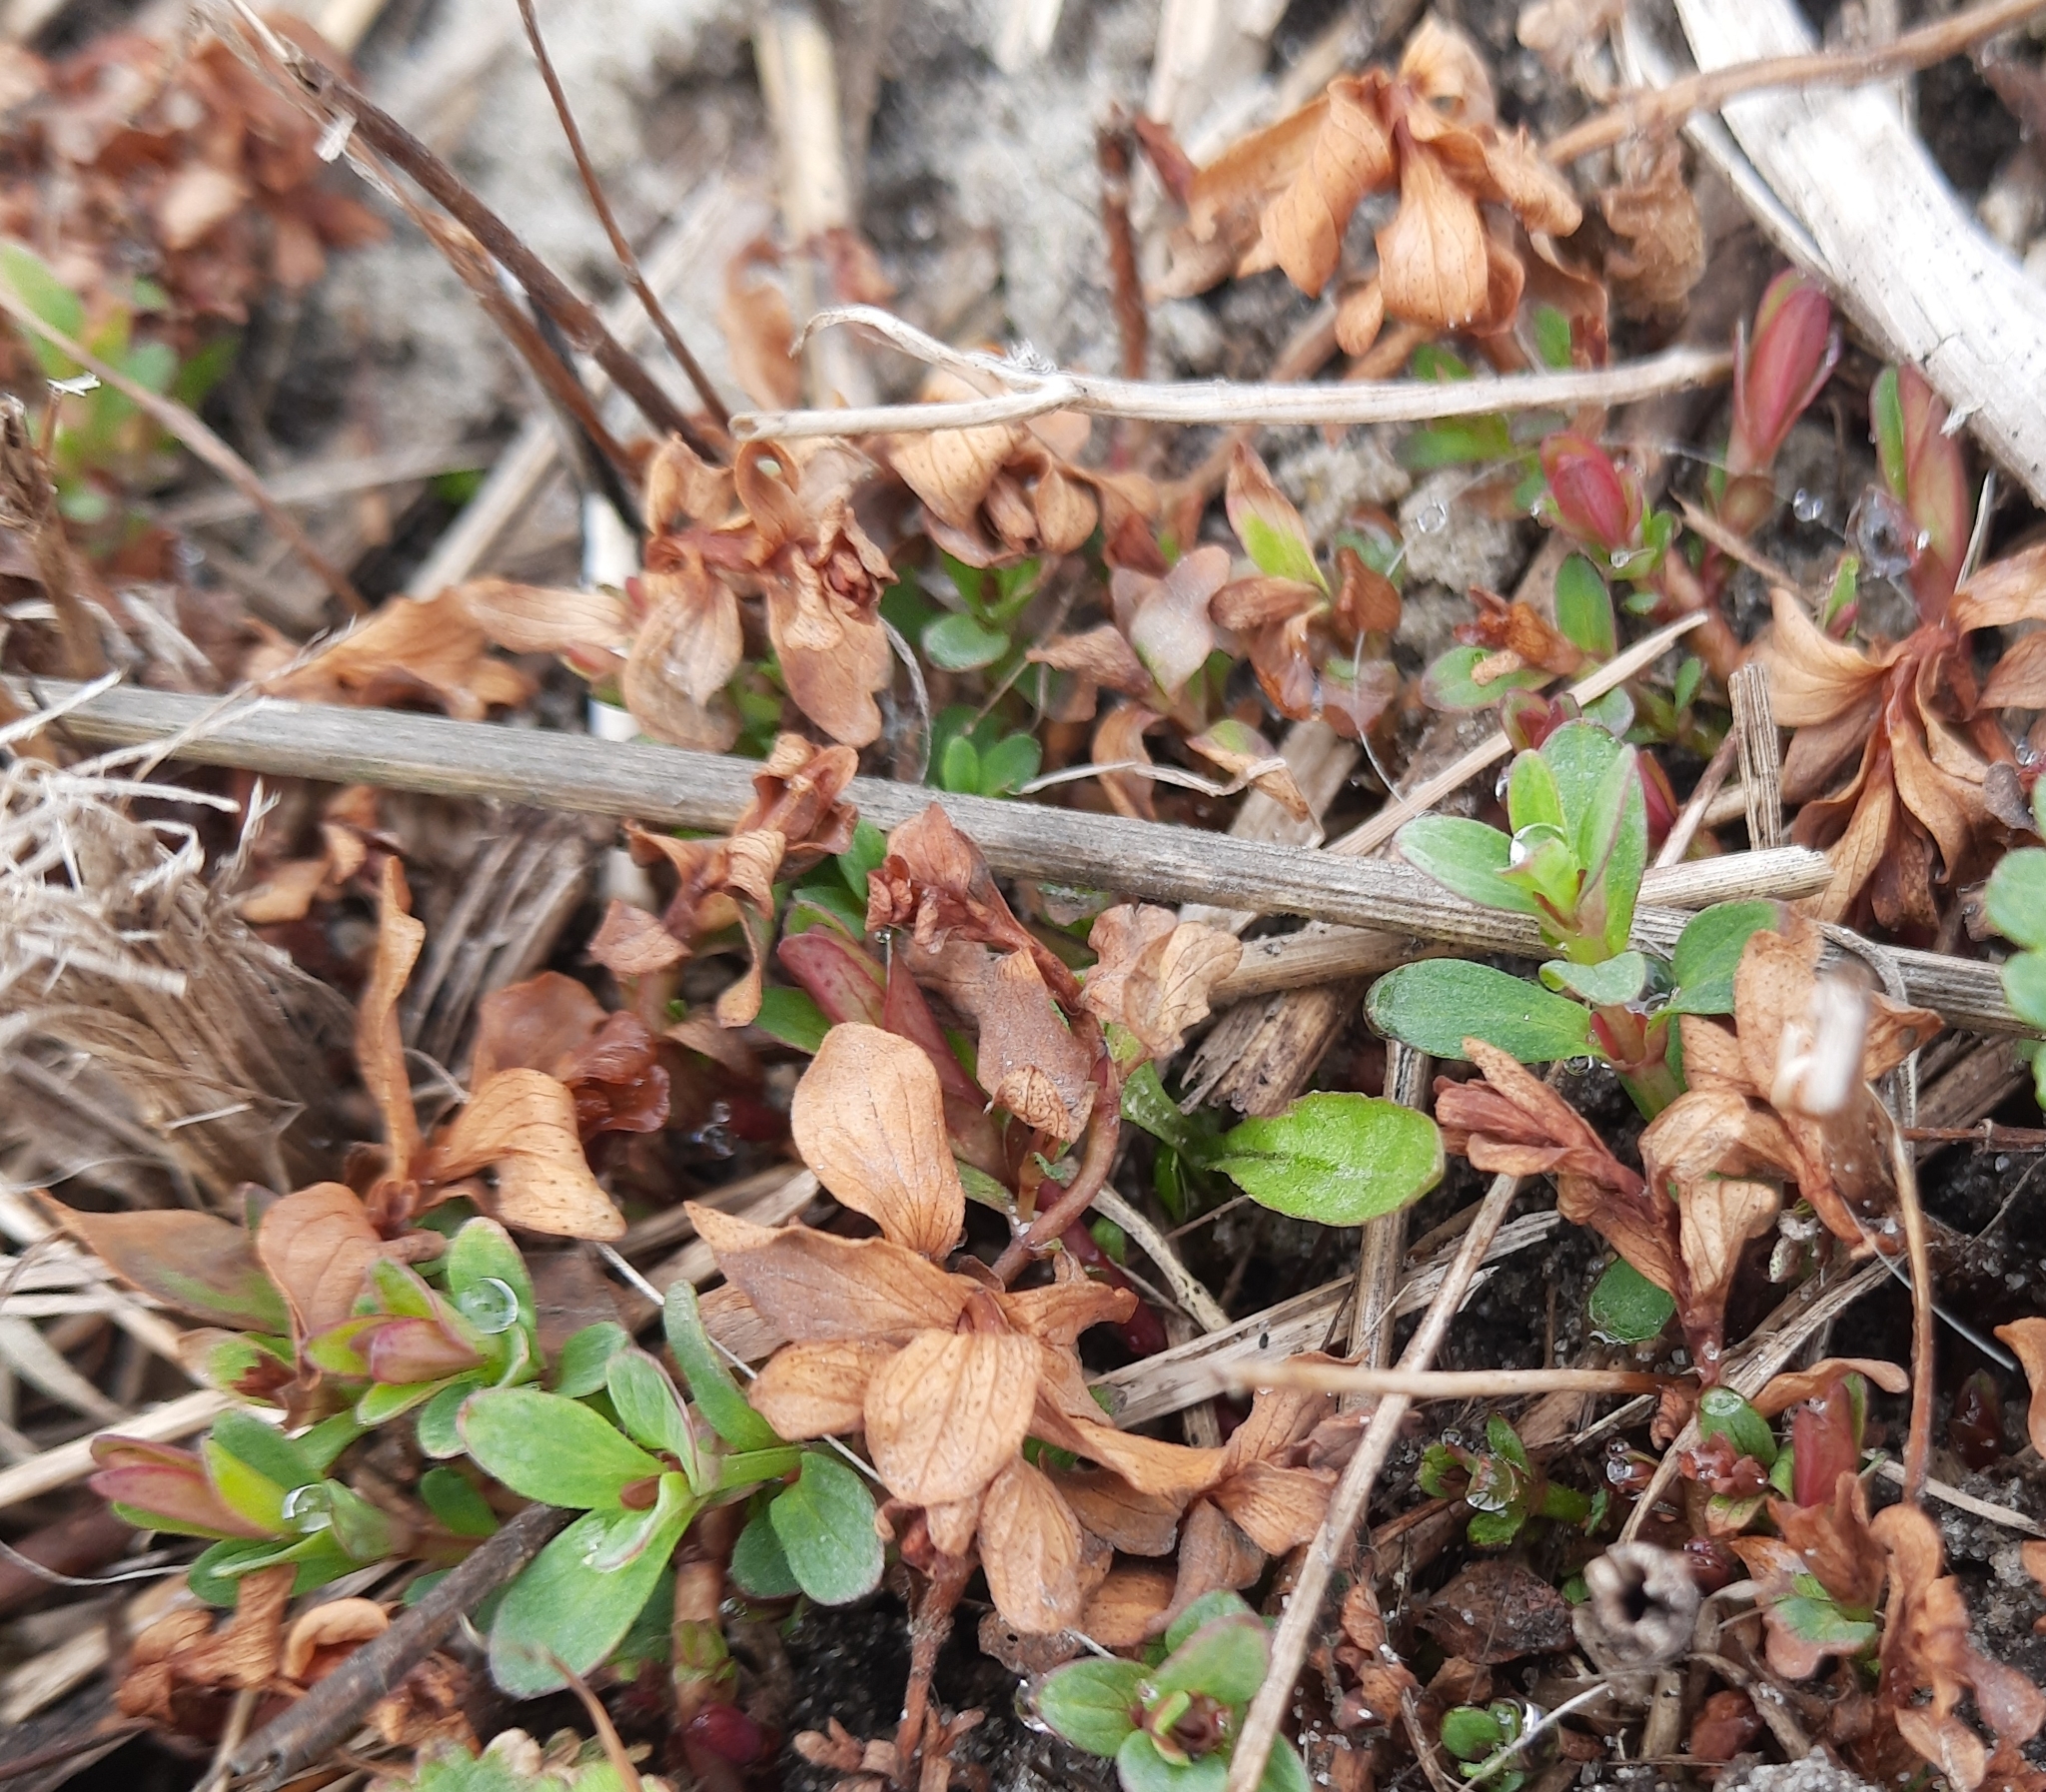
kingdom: Plantae
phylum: Tracheophyta
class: Magnoliopsida
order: Malpighiales
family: Hypericaceae
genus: Hypericum
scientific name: Hypericum perforatum
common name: Common st. johnswort
